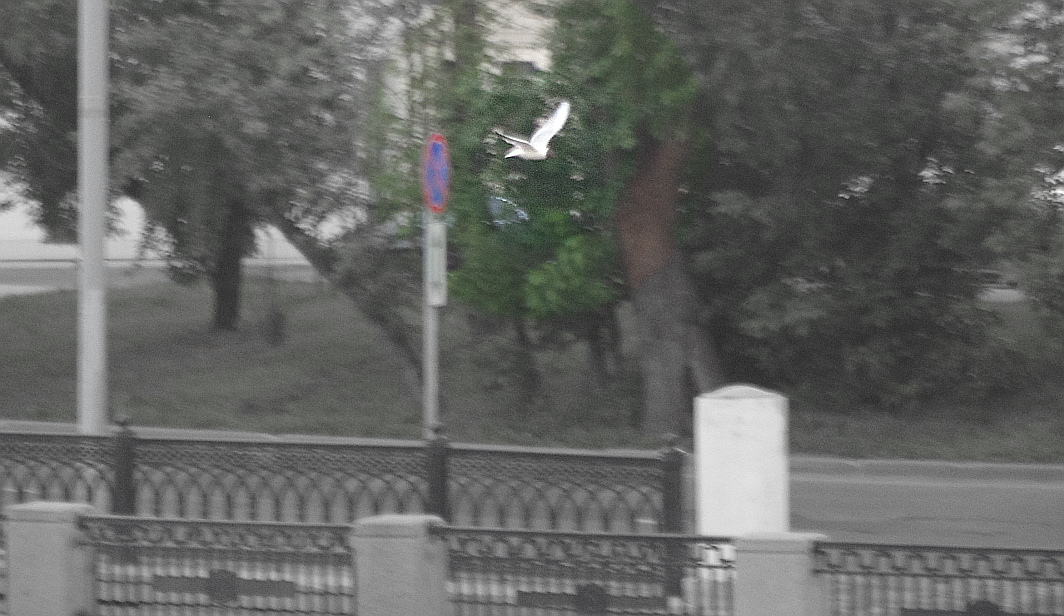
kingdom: Animalia
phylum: Chordata
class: Aves
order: Charadriiformes
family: Laridae
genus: Chroicocephalus
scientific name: Chroicocephalus ridibundus
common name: Black-headed gull
